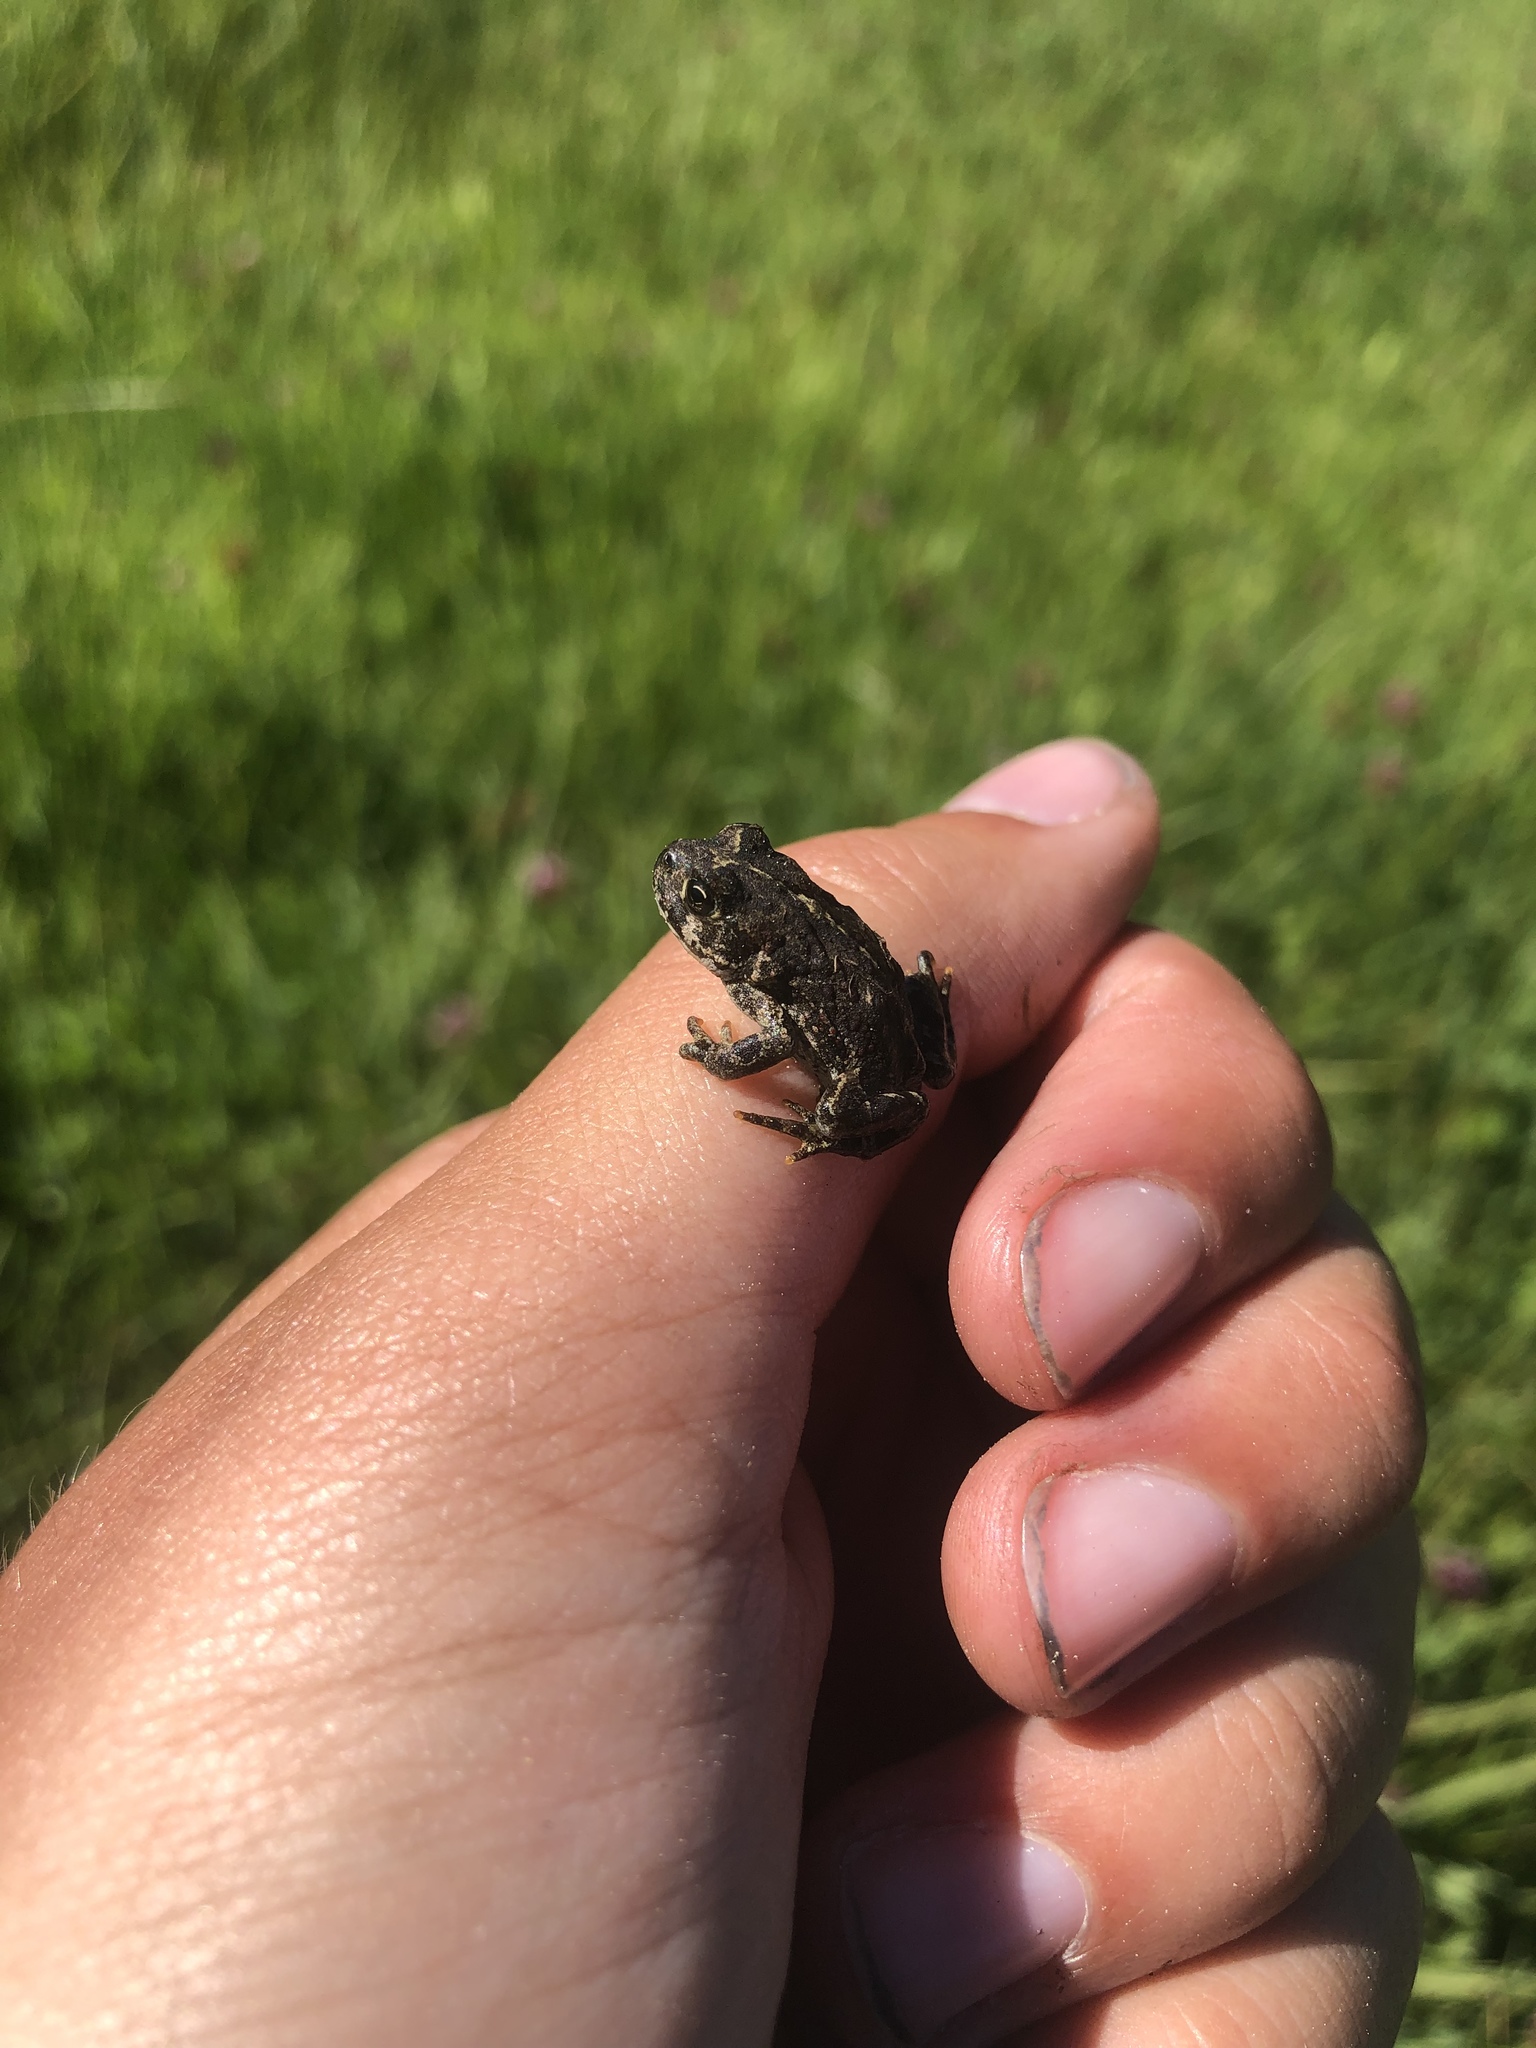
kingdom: Animalia
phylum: Chordata
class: Amphibia
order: Anura
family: Bufonidae
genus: Anaxyrus
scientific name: Anaxyrus boreas
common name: Western toad
